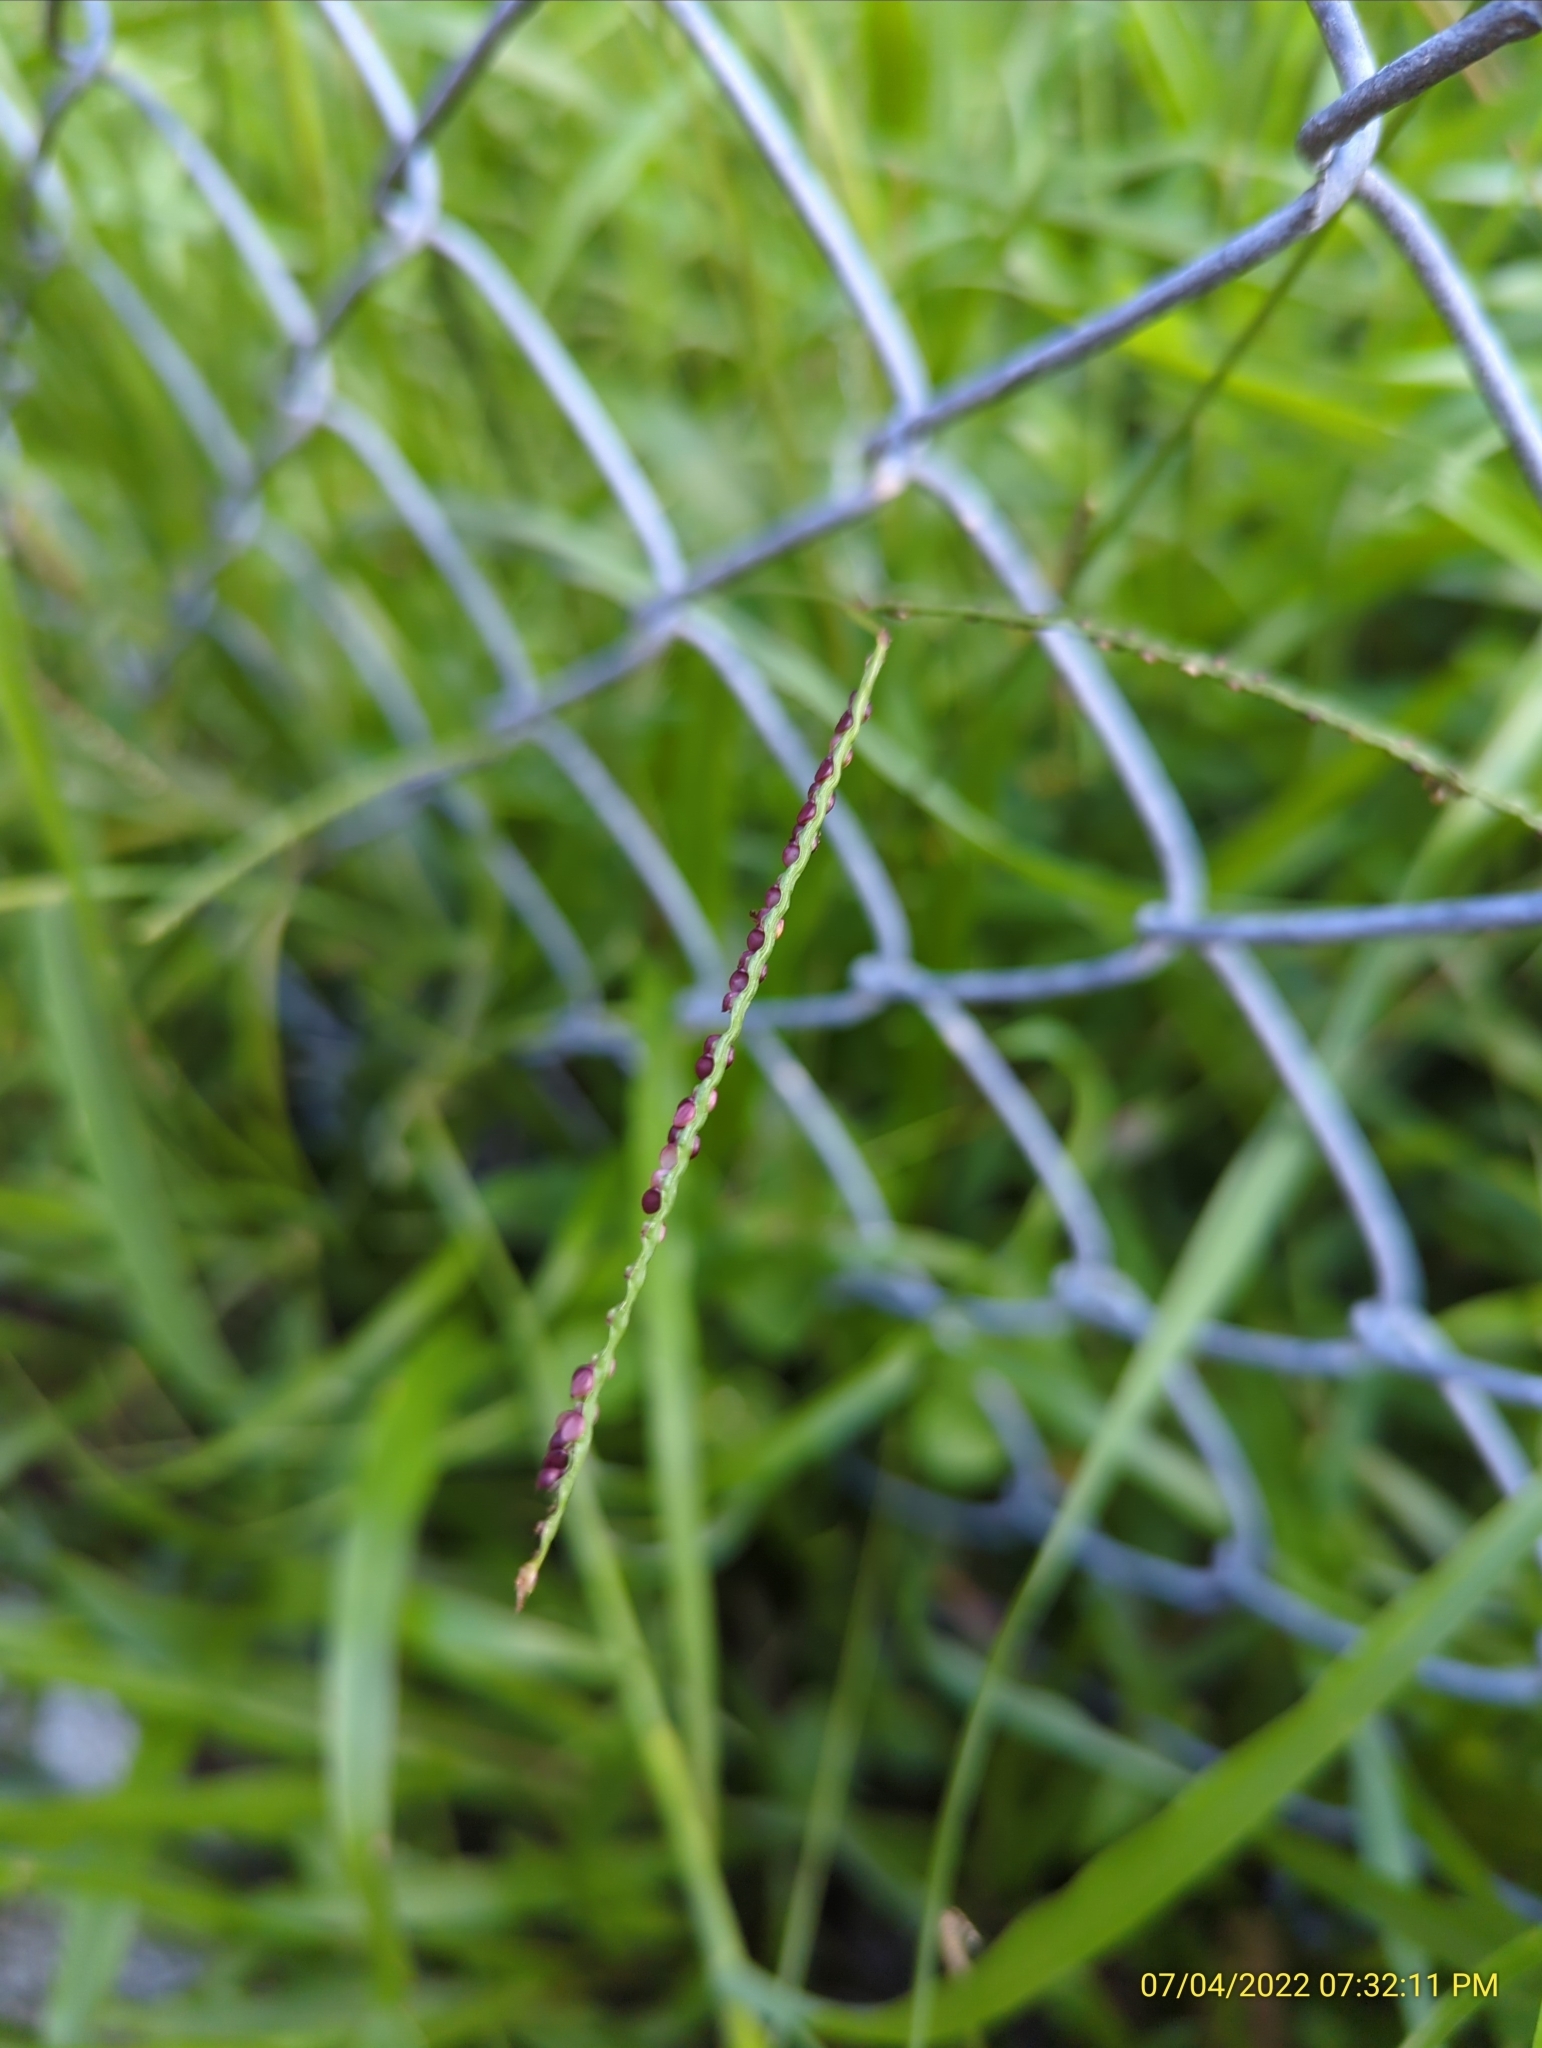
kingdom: Plantae
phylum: Tracheophyta
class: Liliopsida
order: Poales
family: Poaceae
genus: Paspalum
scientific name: Paspalum notatum
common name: Bahiagrass
